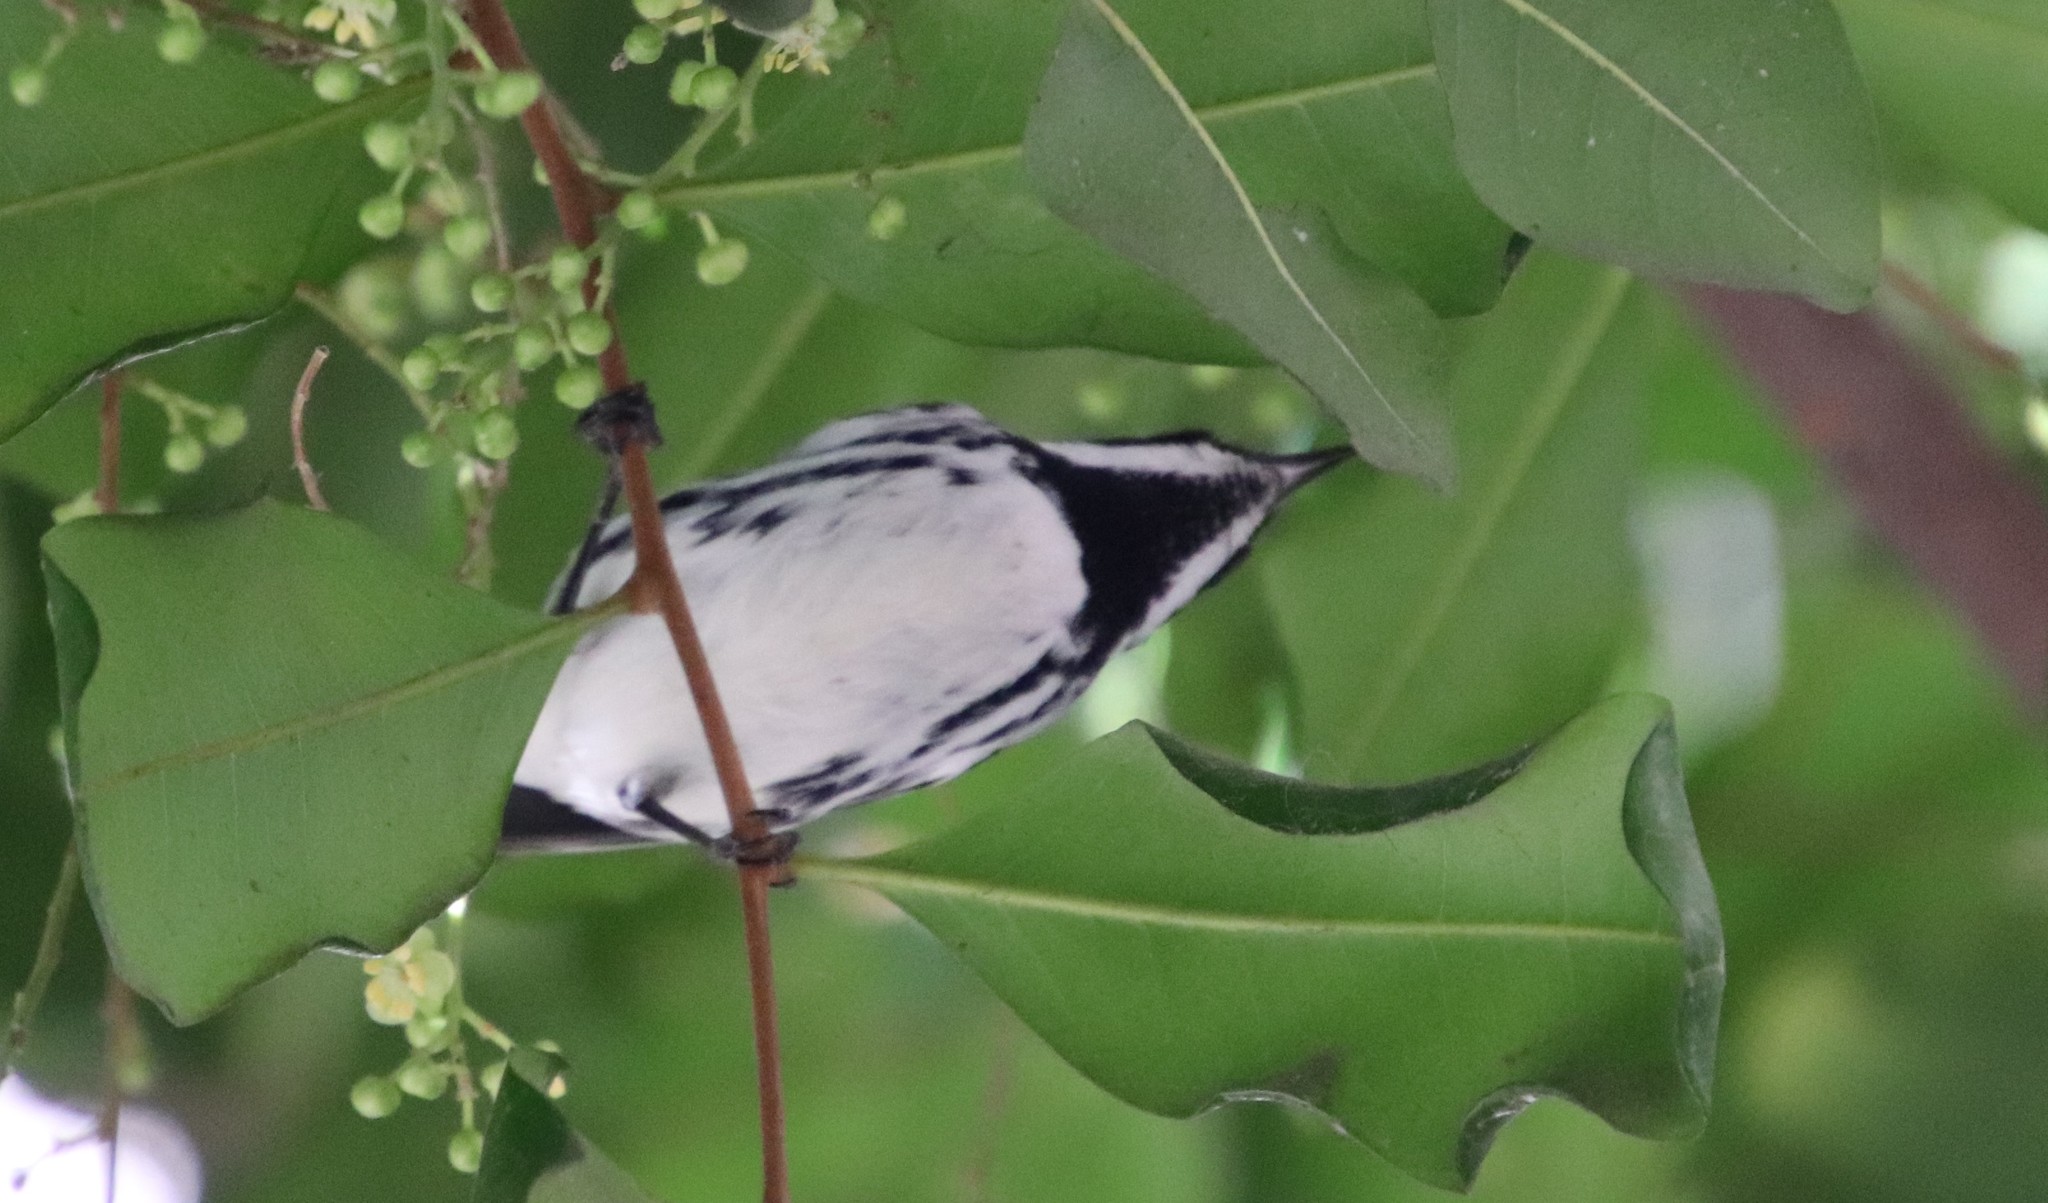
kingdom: Animalia
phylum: Chordata
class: Aves
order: Passeriformes
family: Parulidae
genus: Setophaga
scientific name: Setophaga nigrescens
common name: Black-throated gray warbler
